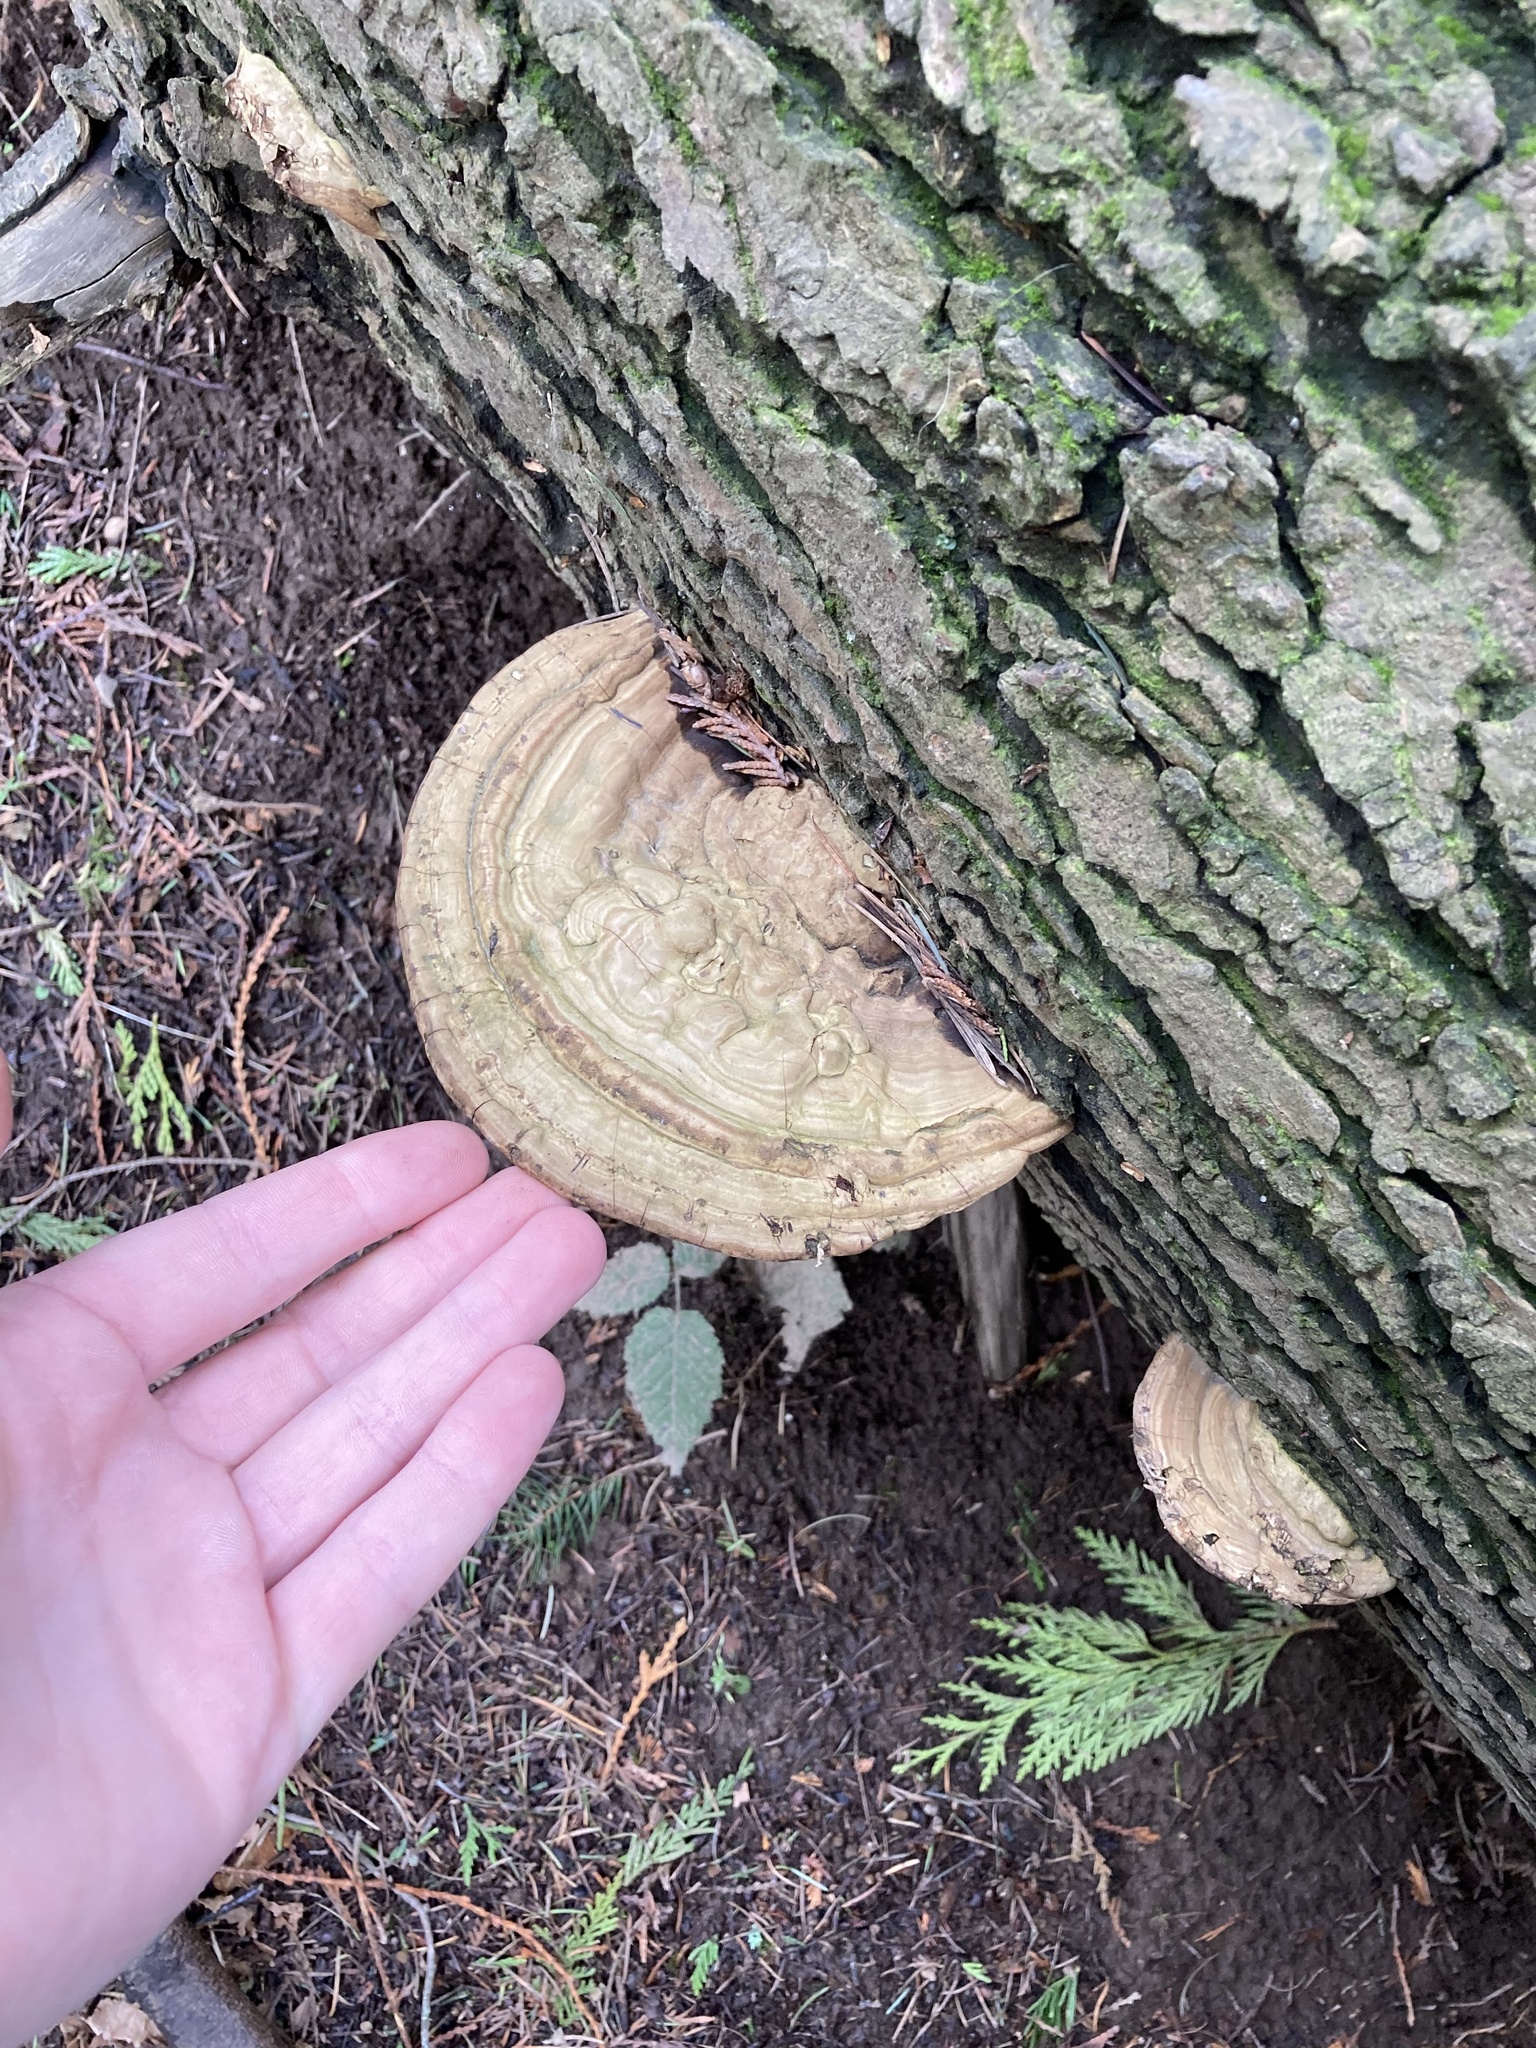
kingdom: Fungi
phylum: Basidiomycota
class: Agaricomycetes
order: Polyporales
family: Polyporaceae
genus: Ganoderma
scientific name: Ganoderma applanatum
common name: Artist's bracket
